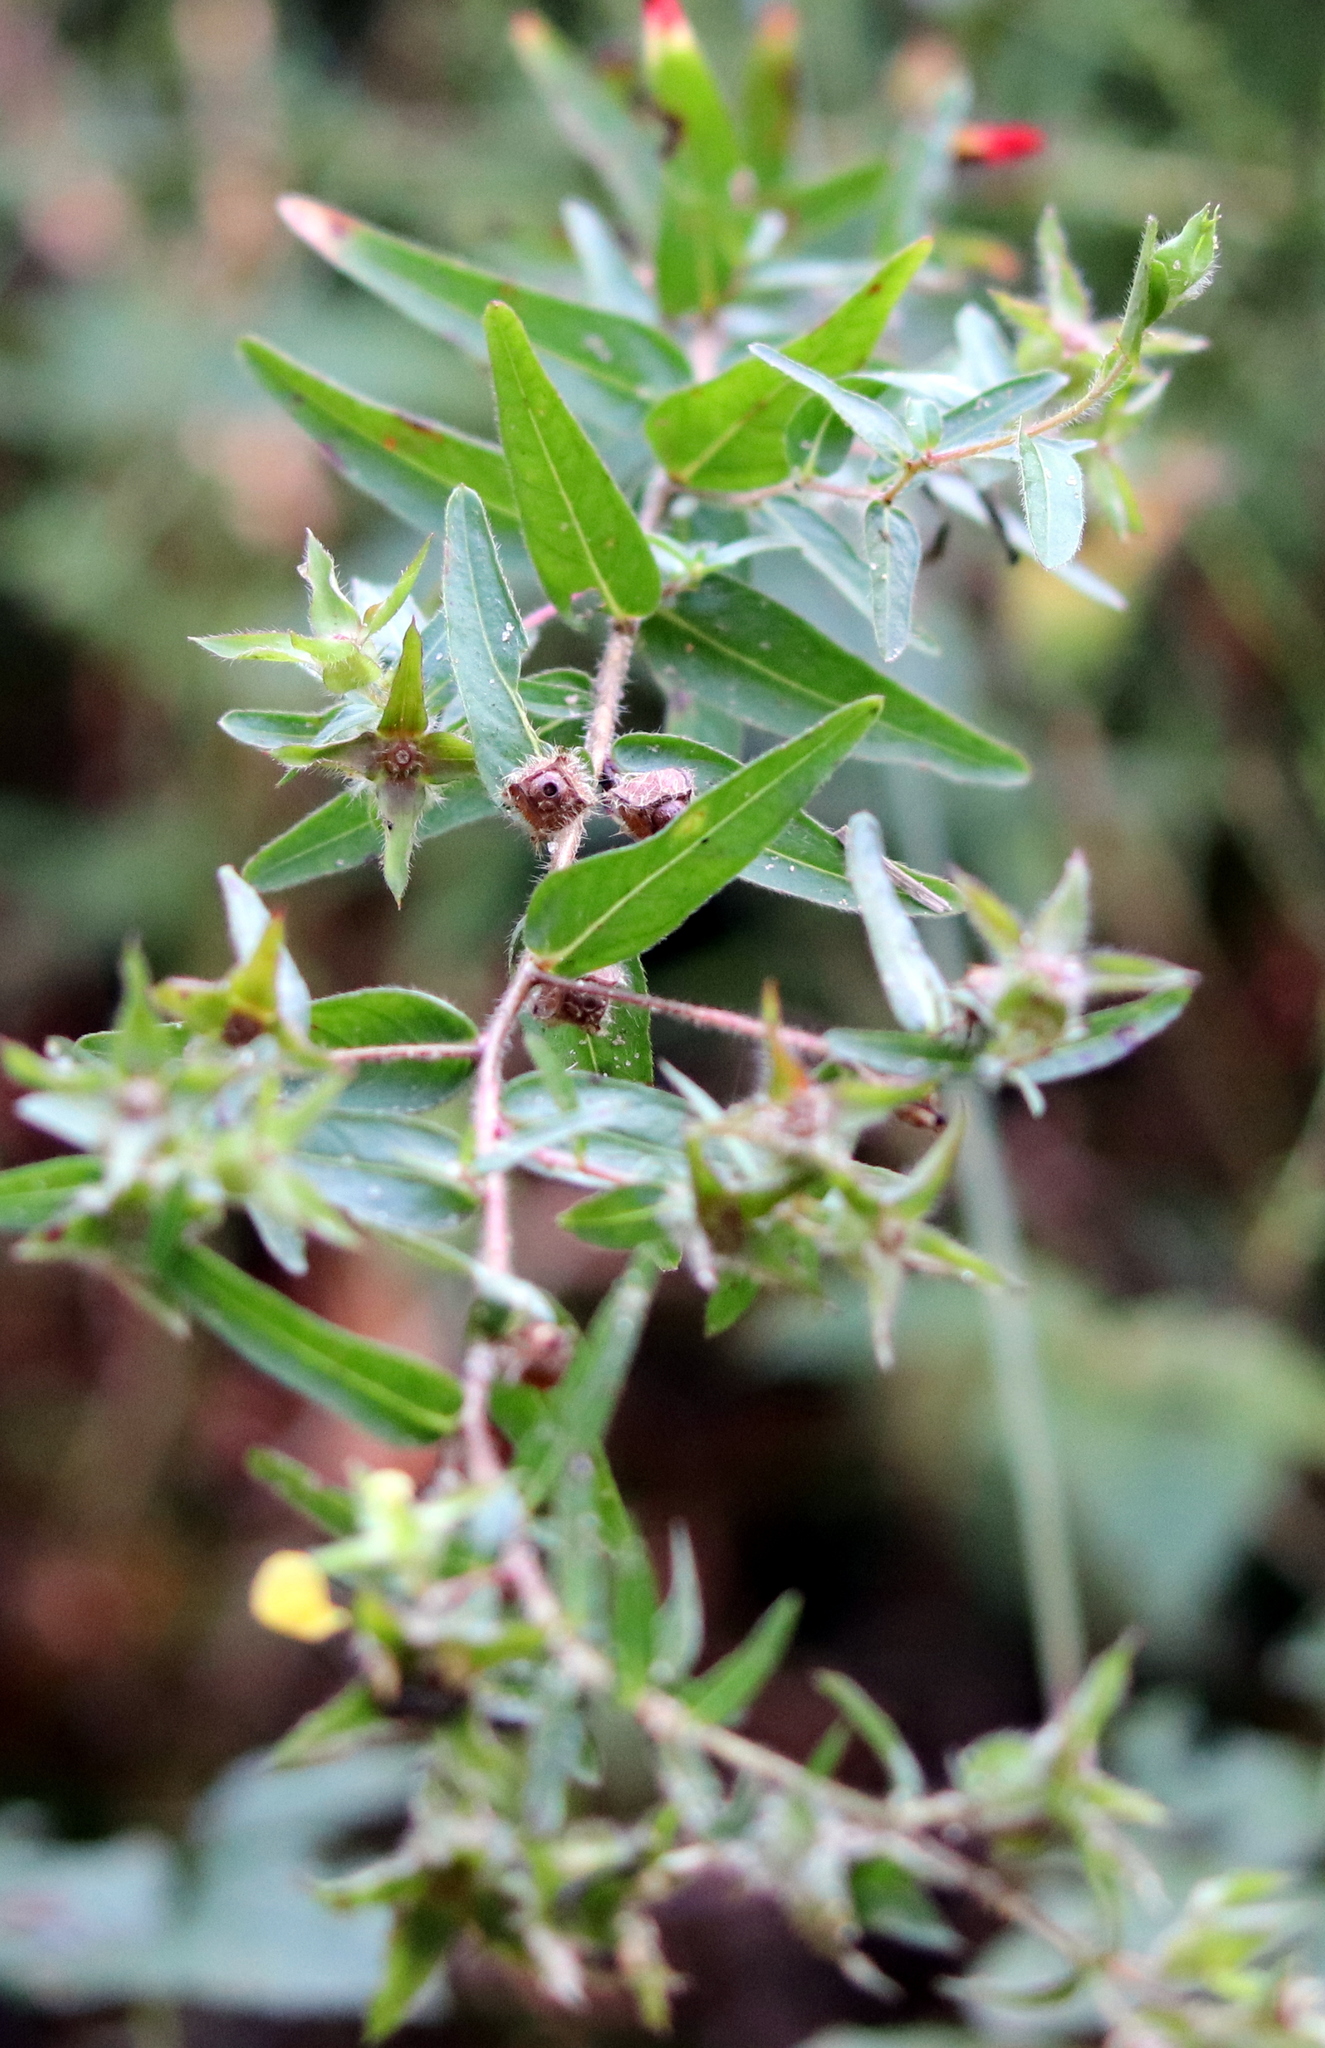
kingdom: Plantae
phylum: Tracheophyta
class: Magnoliopsida
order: Myrtales
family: Onagraceae
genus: Ludwigia
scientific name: Ludwigia hirtella
